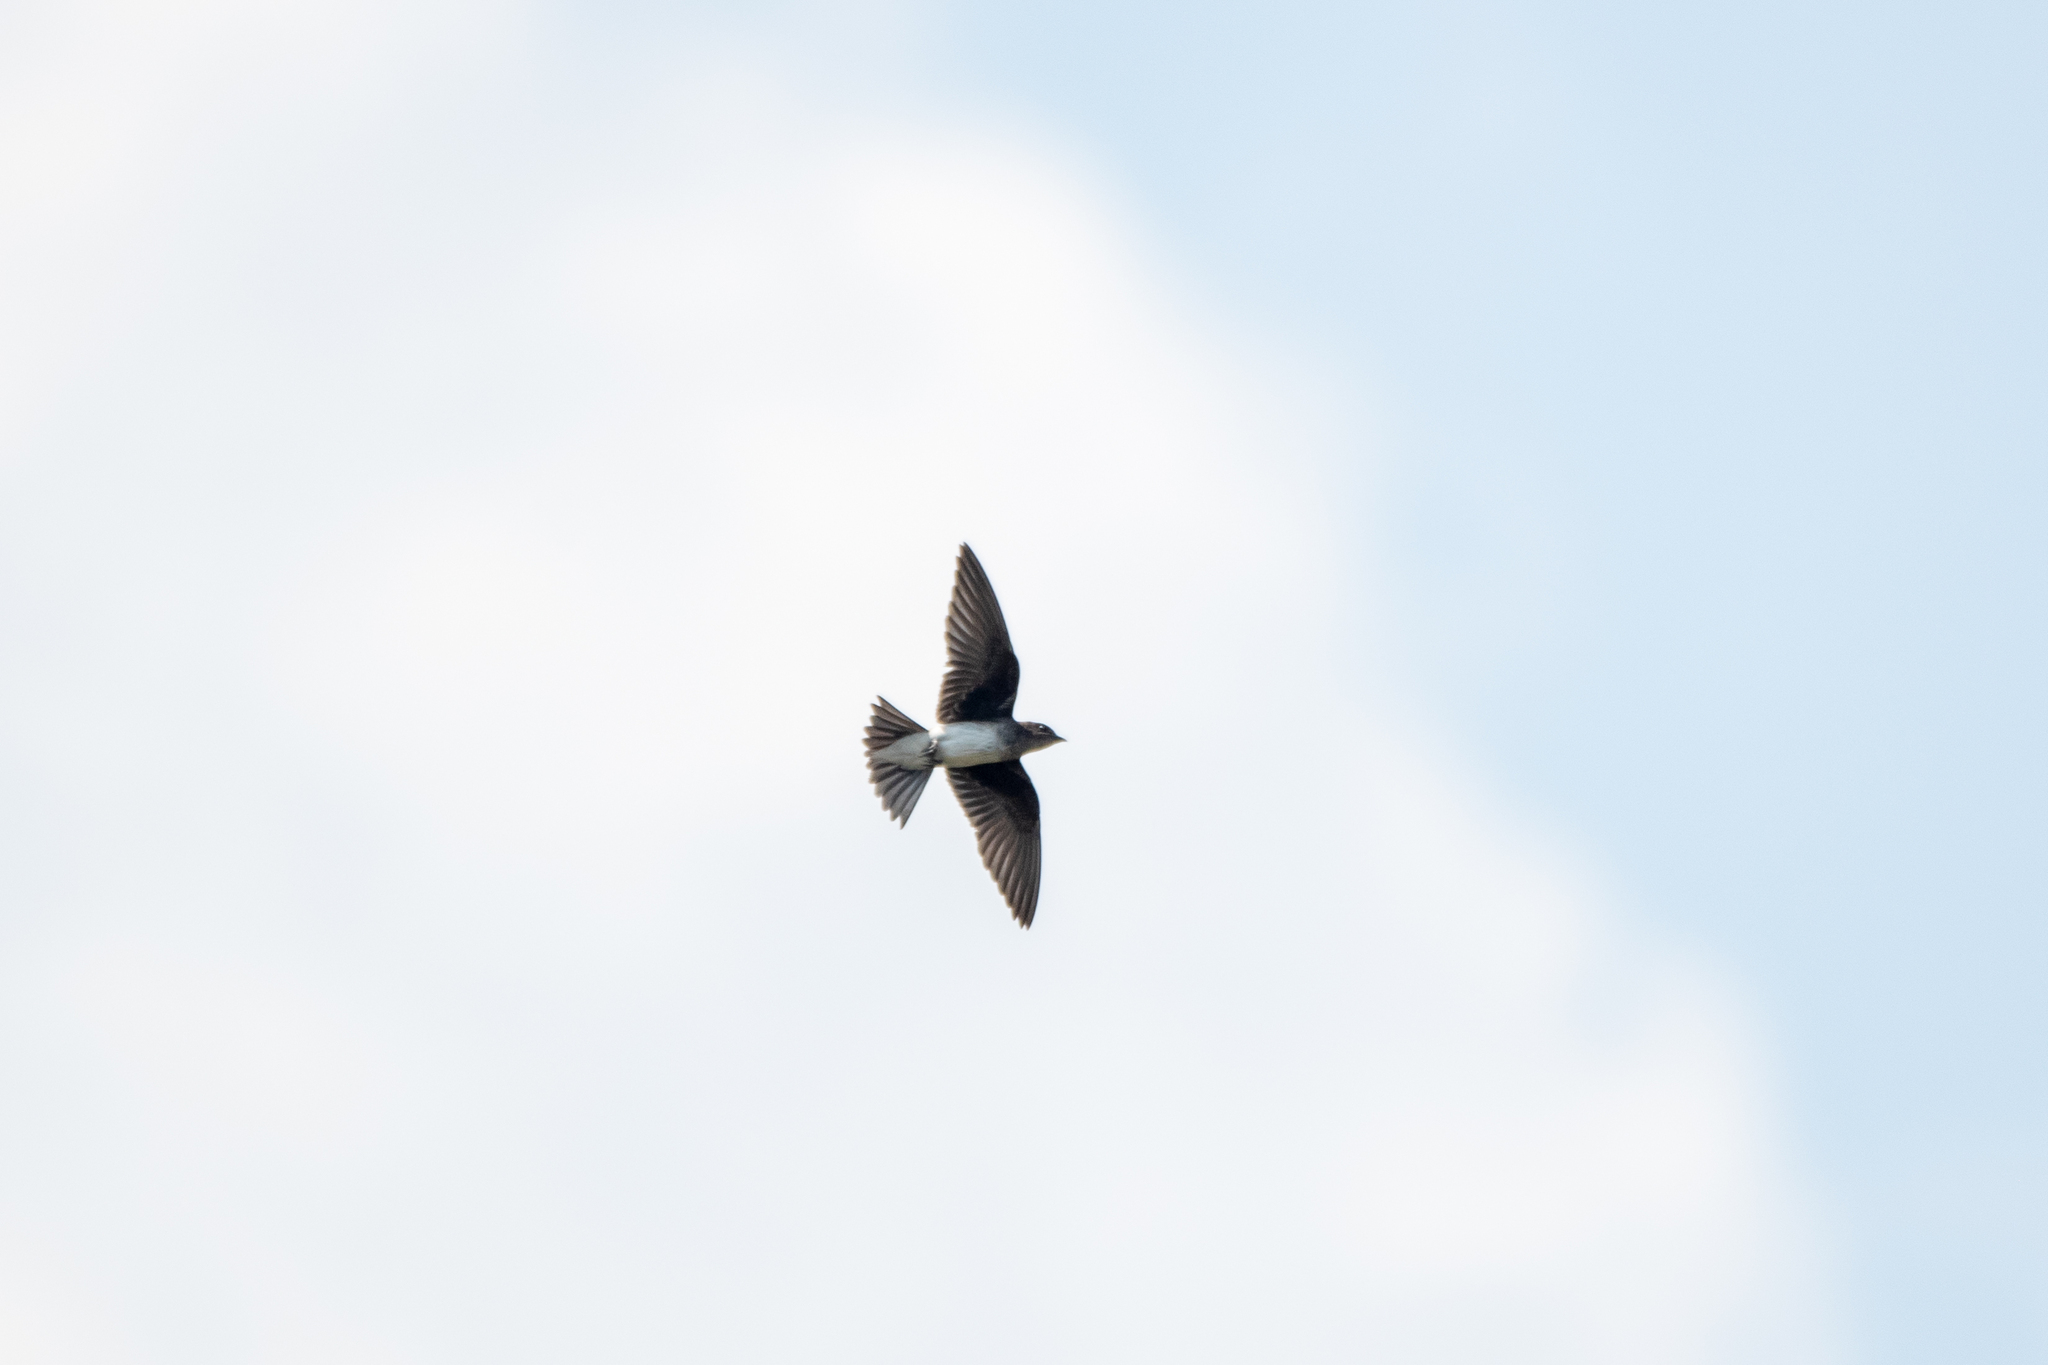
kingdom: Animalia
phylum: Chordata
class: Aves
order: Passeriformes
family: Hirundinidae
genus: Progne
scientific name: Progne chalybea
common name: Grey-breasted martin
